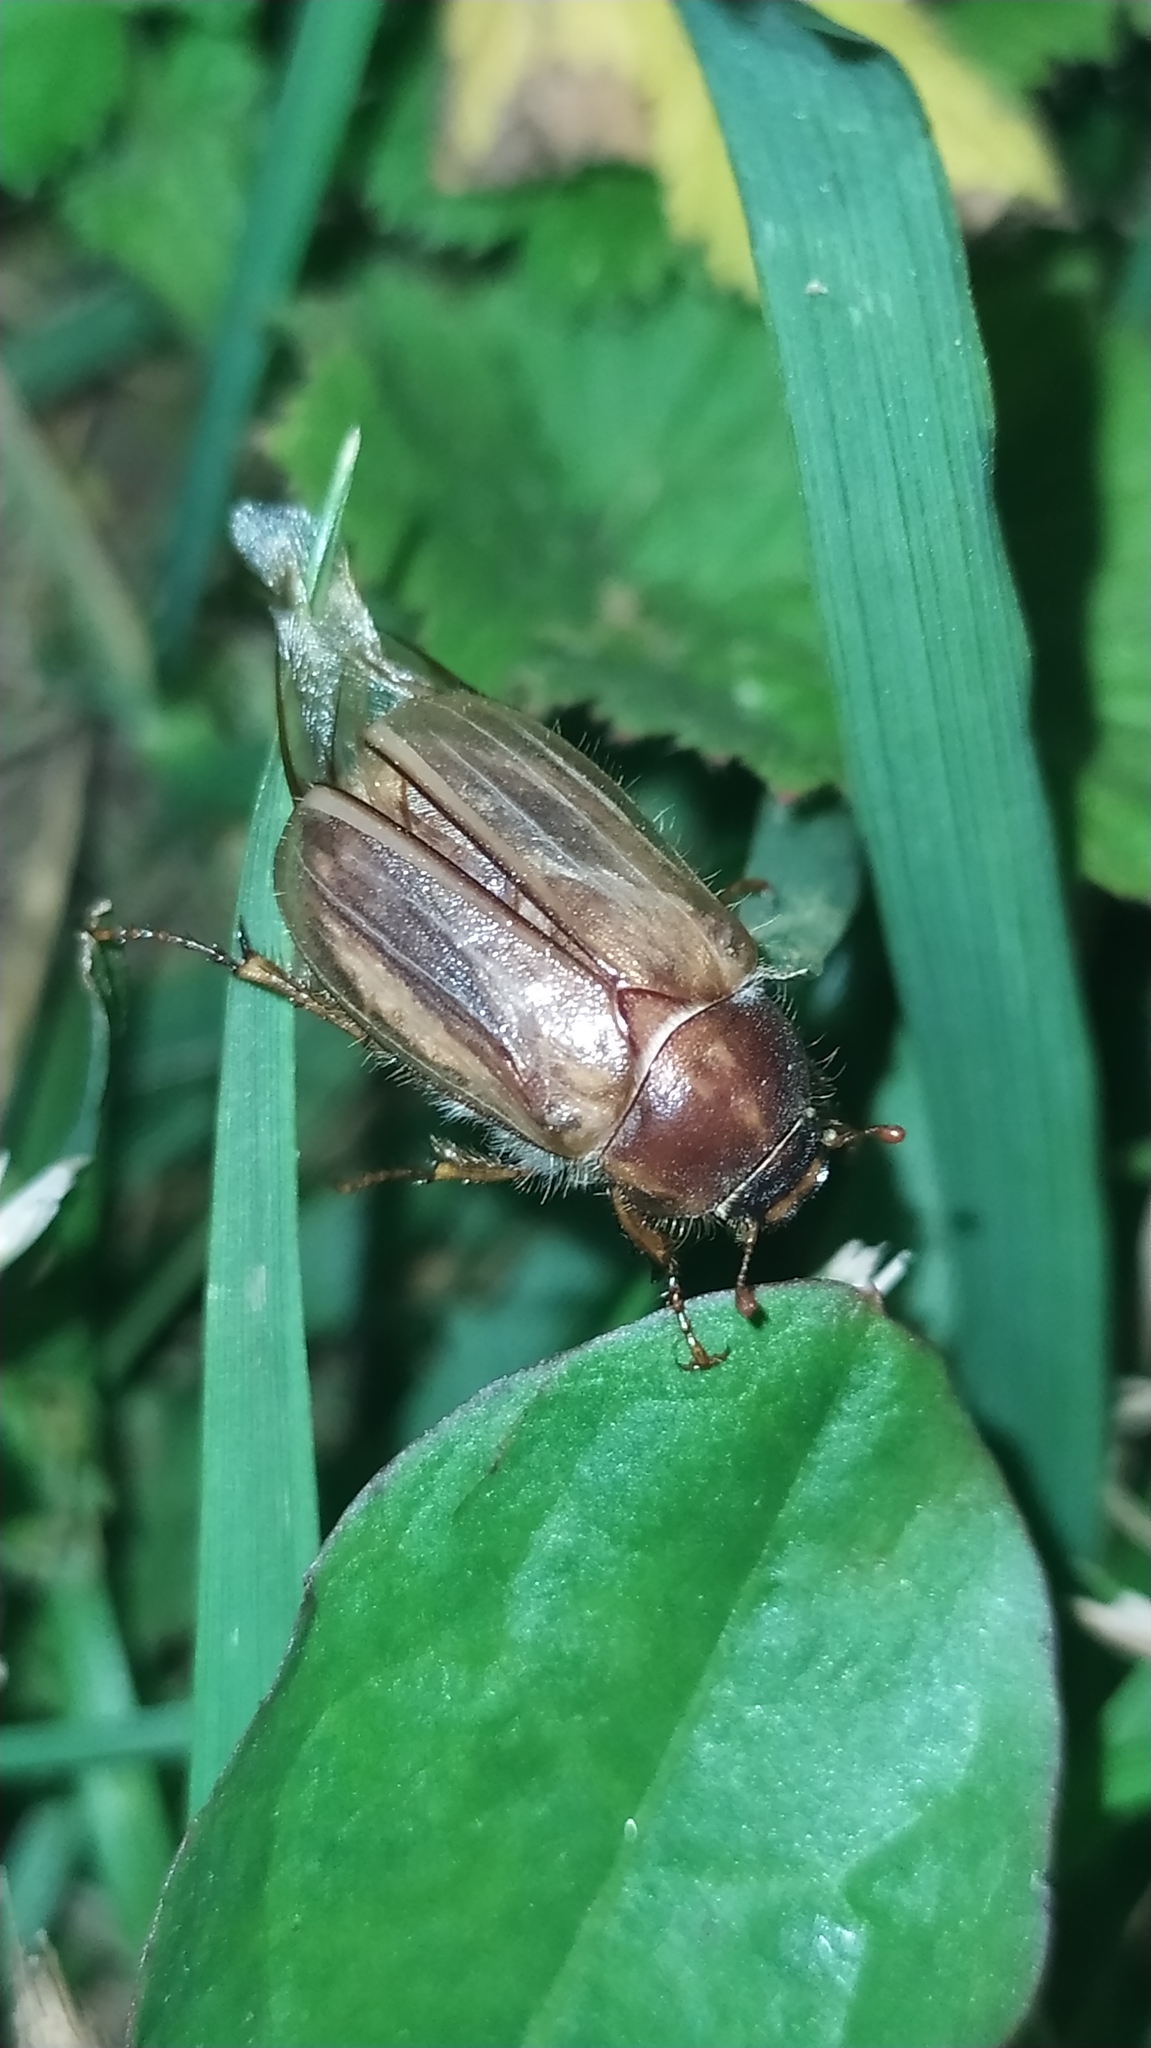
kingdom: Animalia
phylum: Arthropoda
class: Insecta
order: Coleoptera
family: Scarabaeidae
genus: Amphimallon
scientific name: Amphimallon solstitiale
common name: Summer chafer
